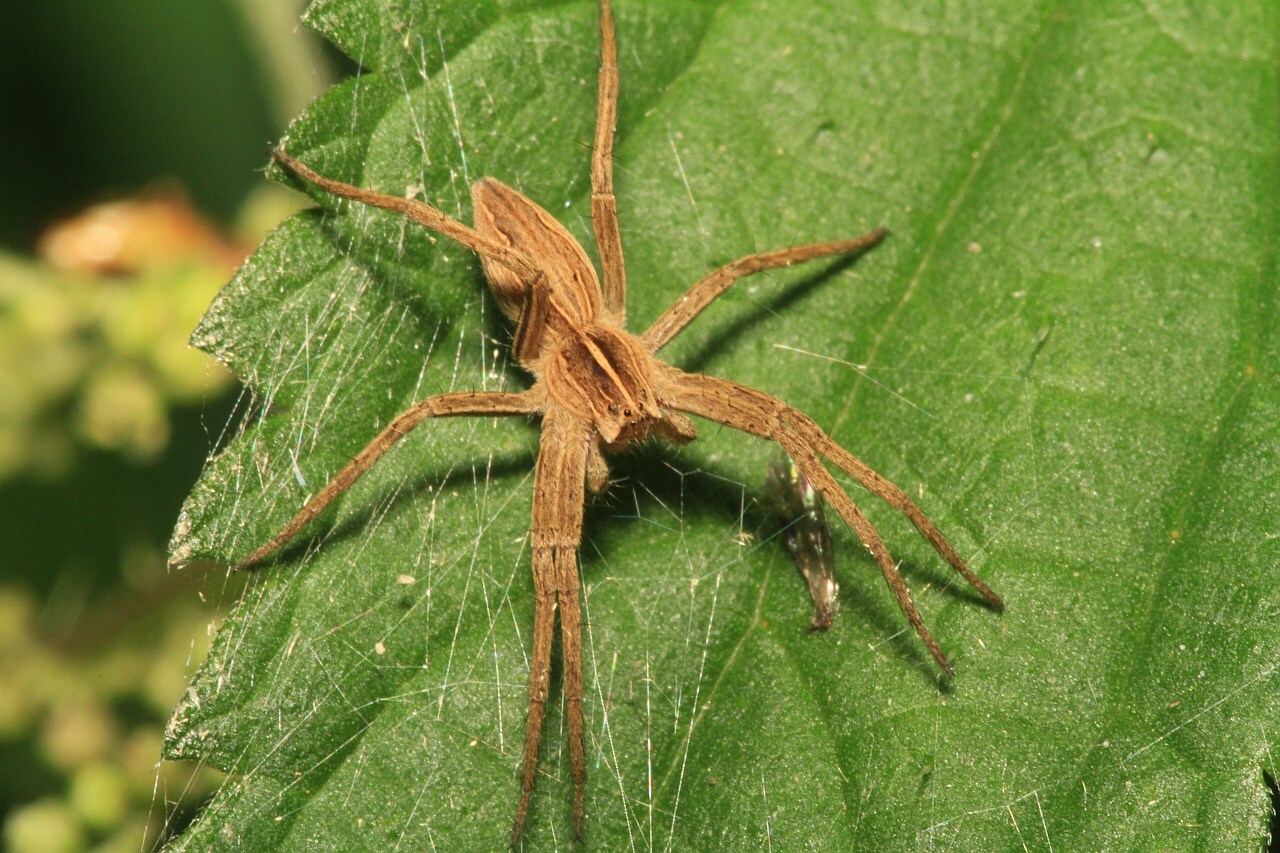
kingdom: Animalia
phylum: Arthropoda
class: Arachnida
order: Araneae
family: Pisauridae
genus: Pisaura
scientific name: Pisaura mirabilis
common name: Tent spider
